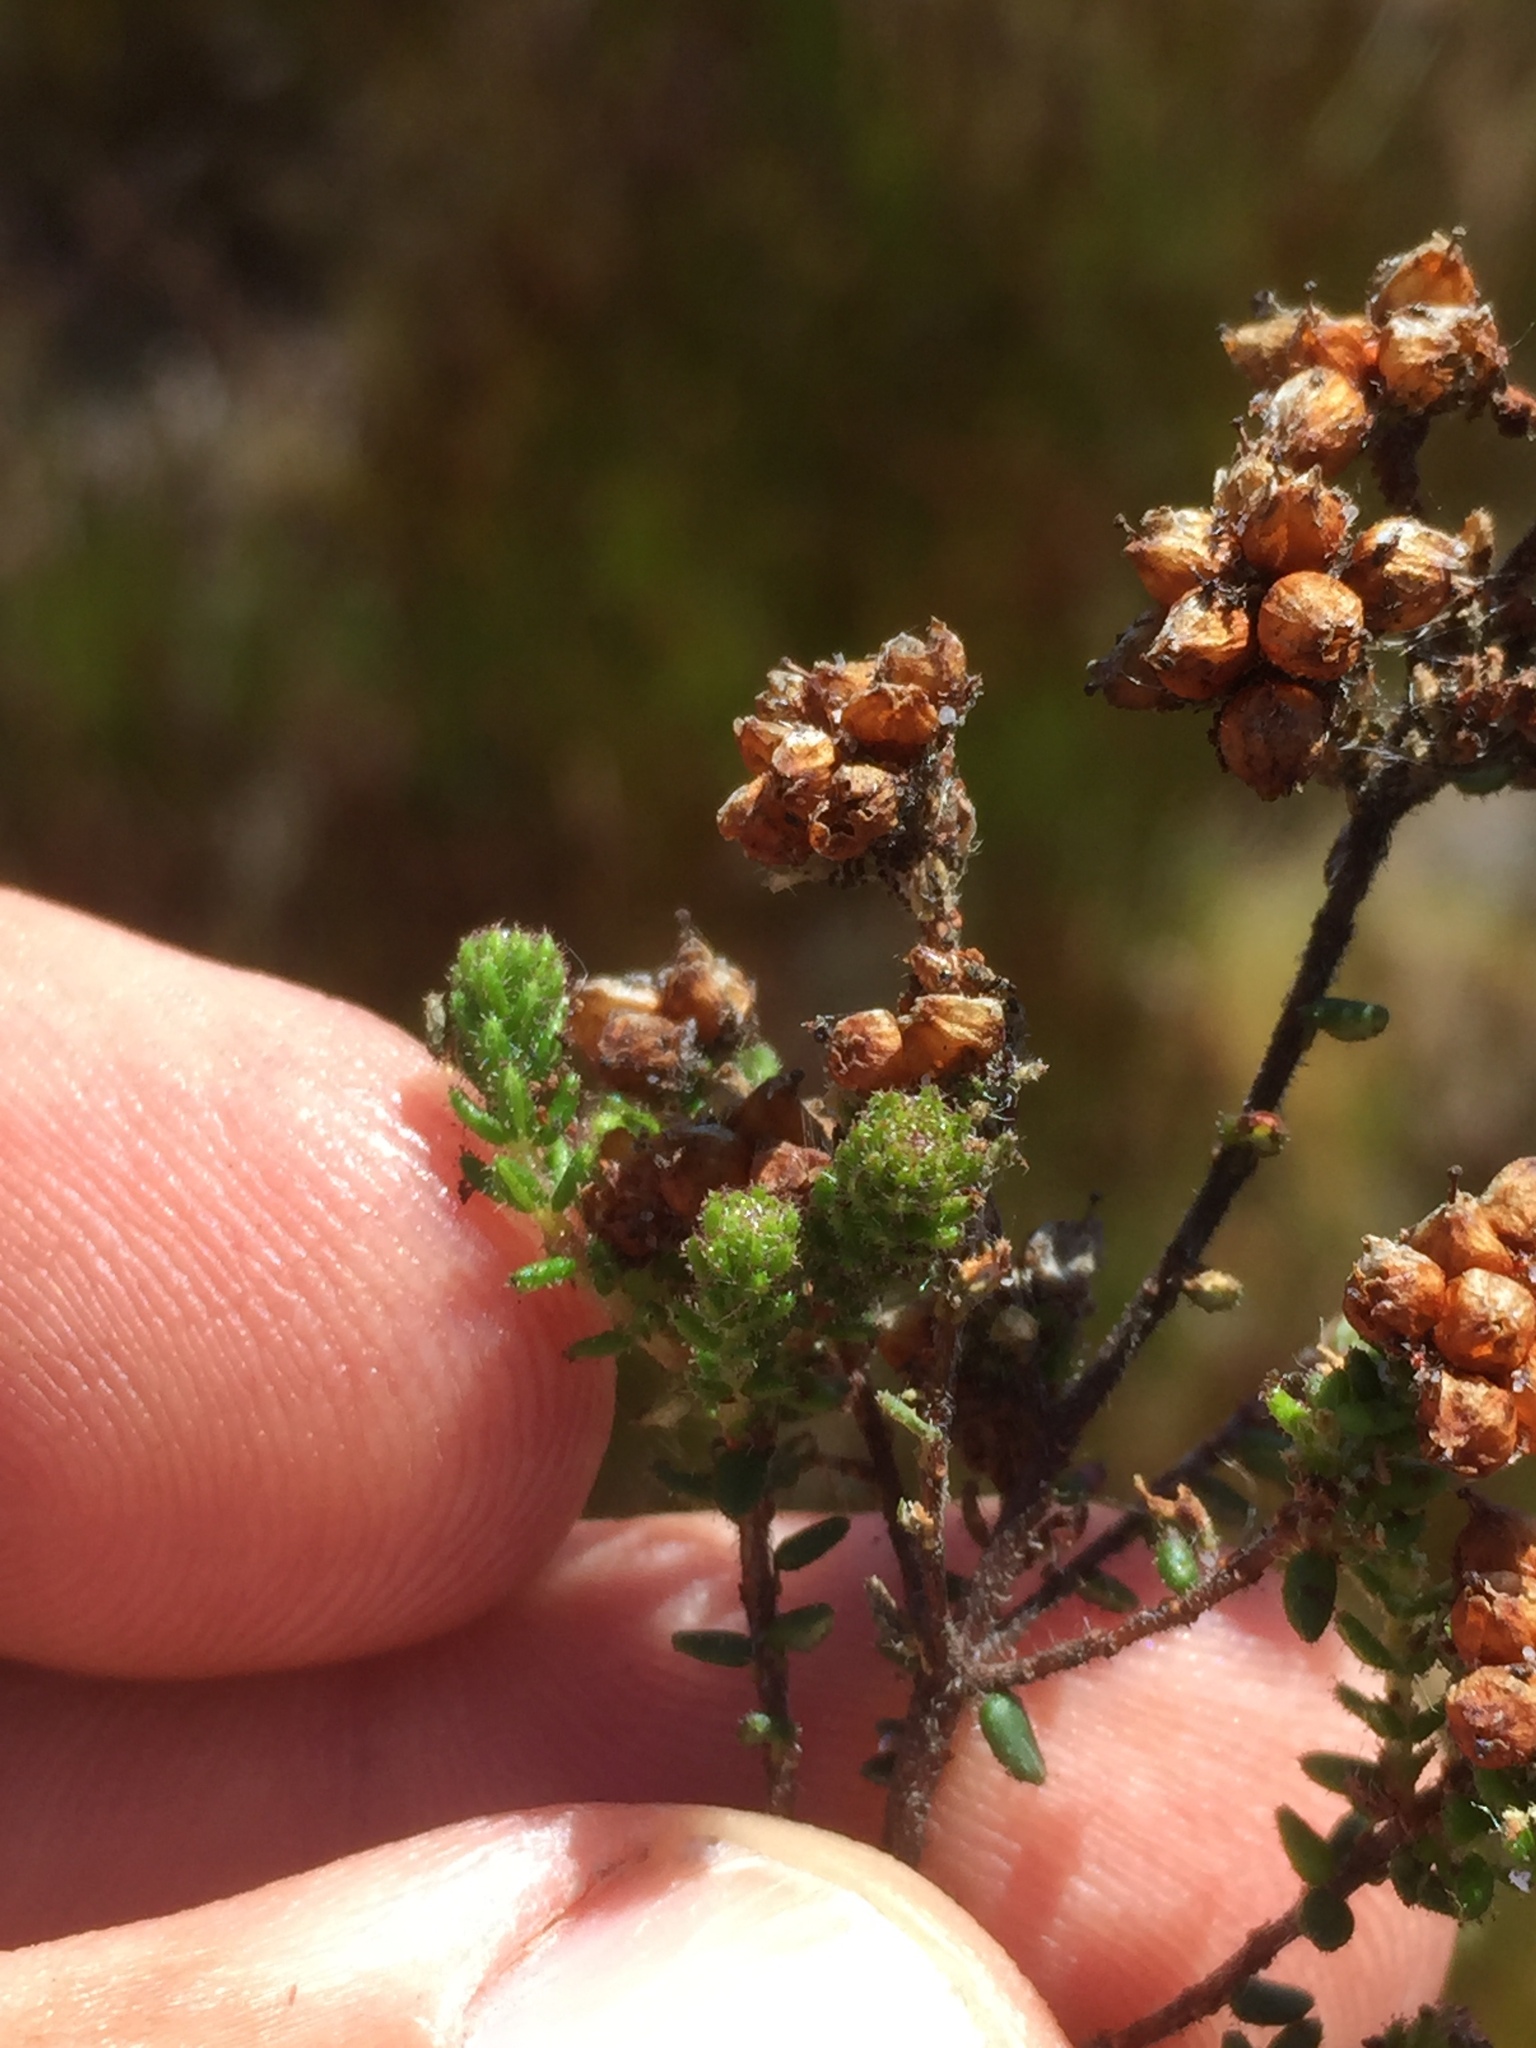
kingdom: Plantae
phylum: Tracheophyta
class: Magnoliopsida
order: Ericales
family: Ericaceae
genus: Erica
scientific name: Erica clavisepala
